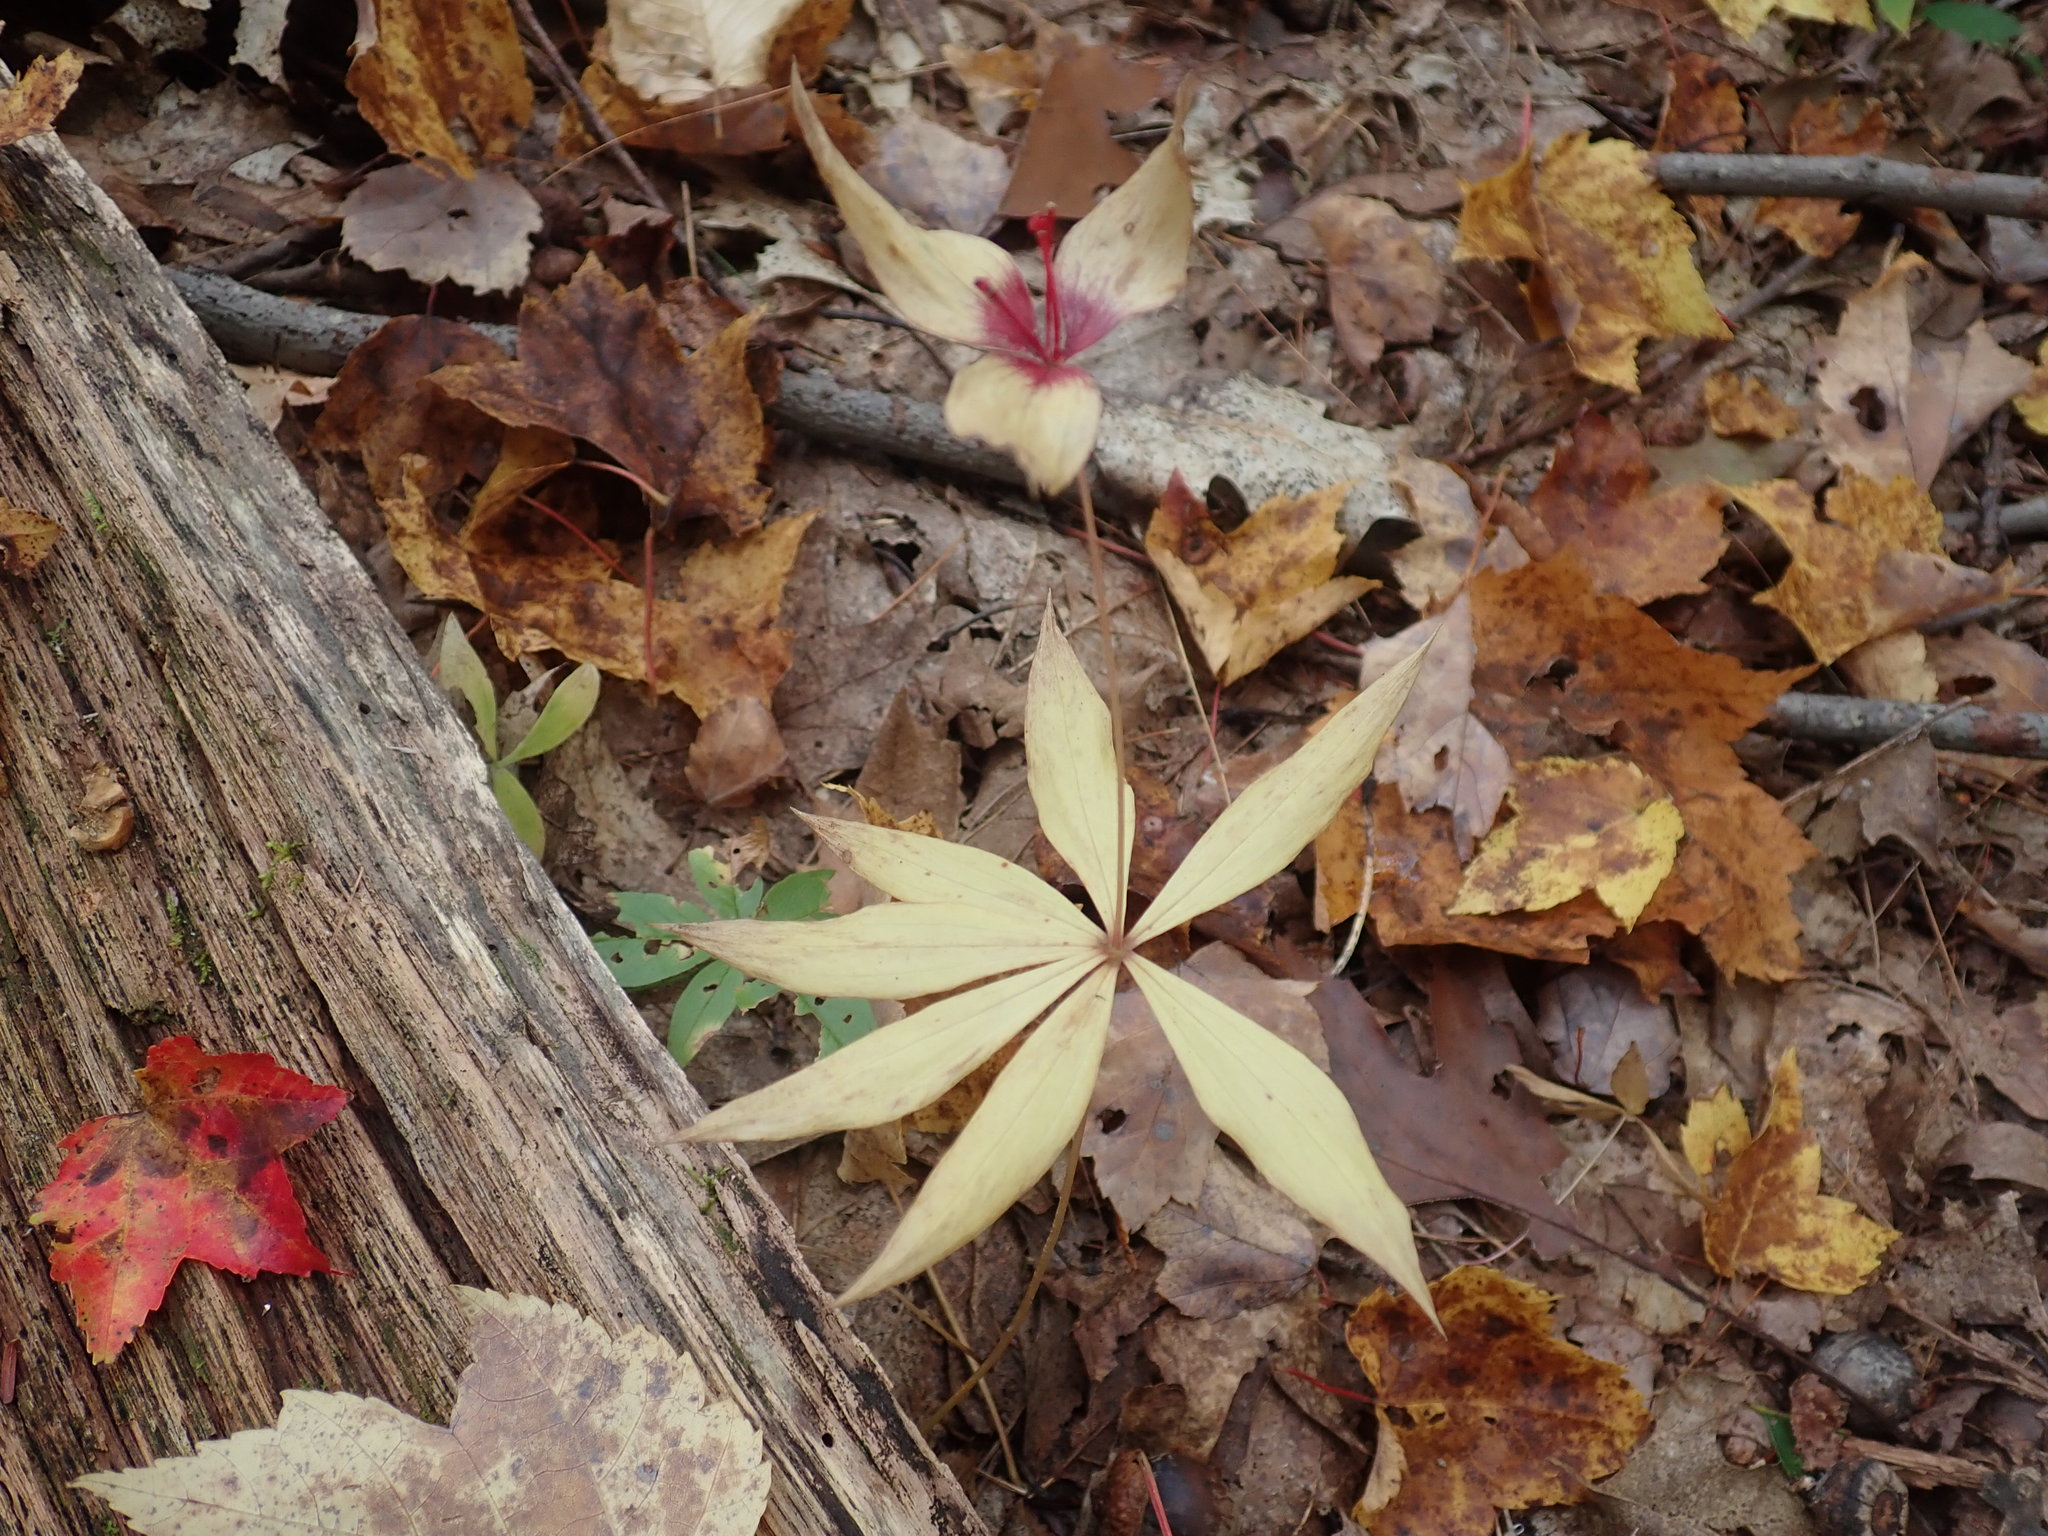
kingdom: Plantae
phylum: Tracheophyta
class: Liliopsida
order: Liliales
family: Liliaceae
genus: Medeola
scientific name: Medeola virginiana
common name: Indian cucumber-root
